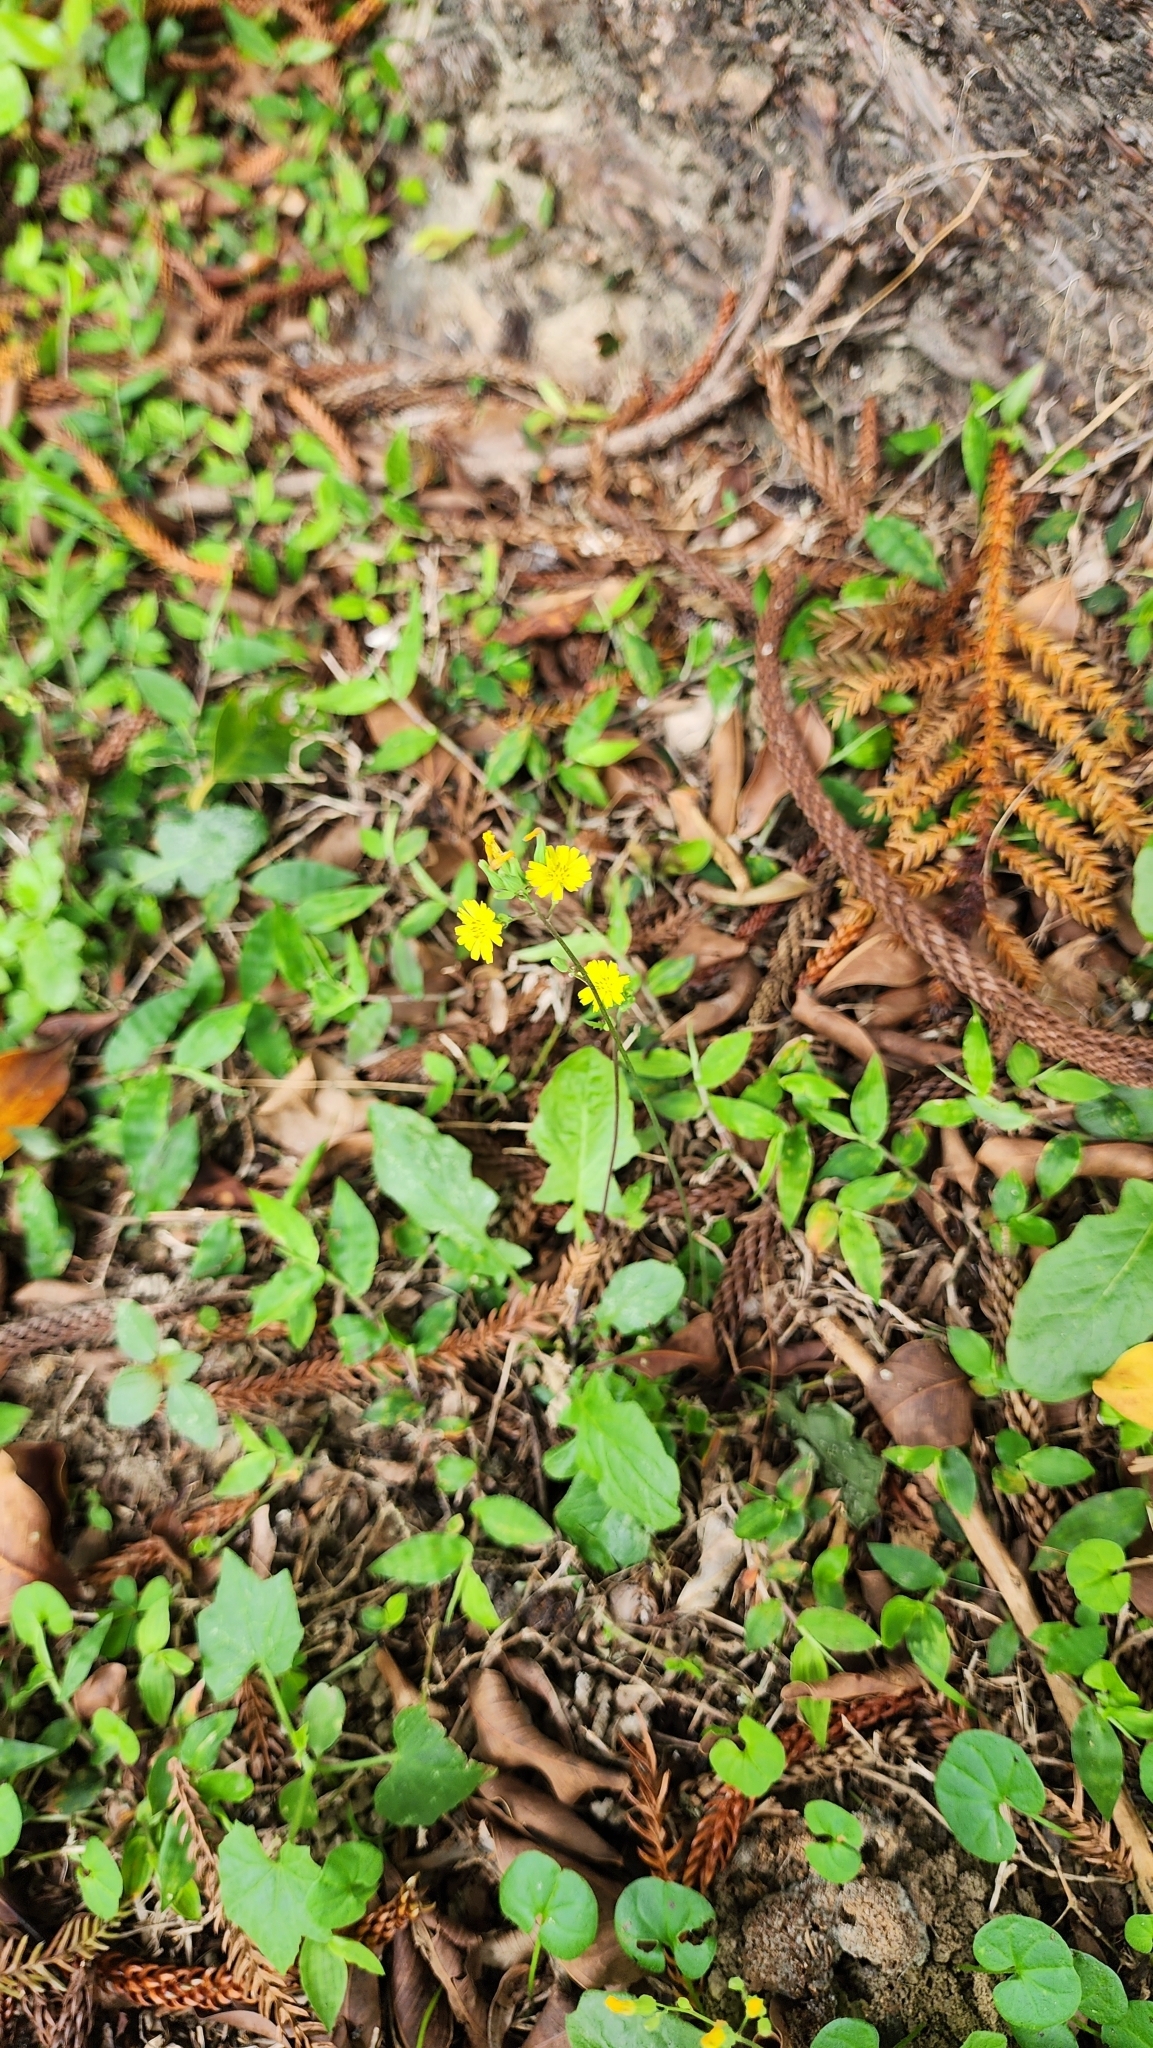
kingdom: Plantae
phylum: Tracheophyta
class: Magnoliopsida
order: Asterales
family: Asteraceae
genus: Youngia
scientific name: Youngia japonica
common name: Oriental false hawksbeard
